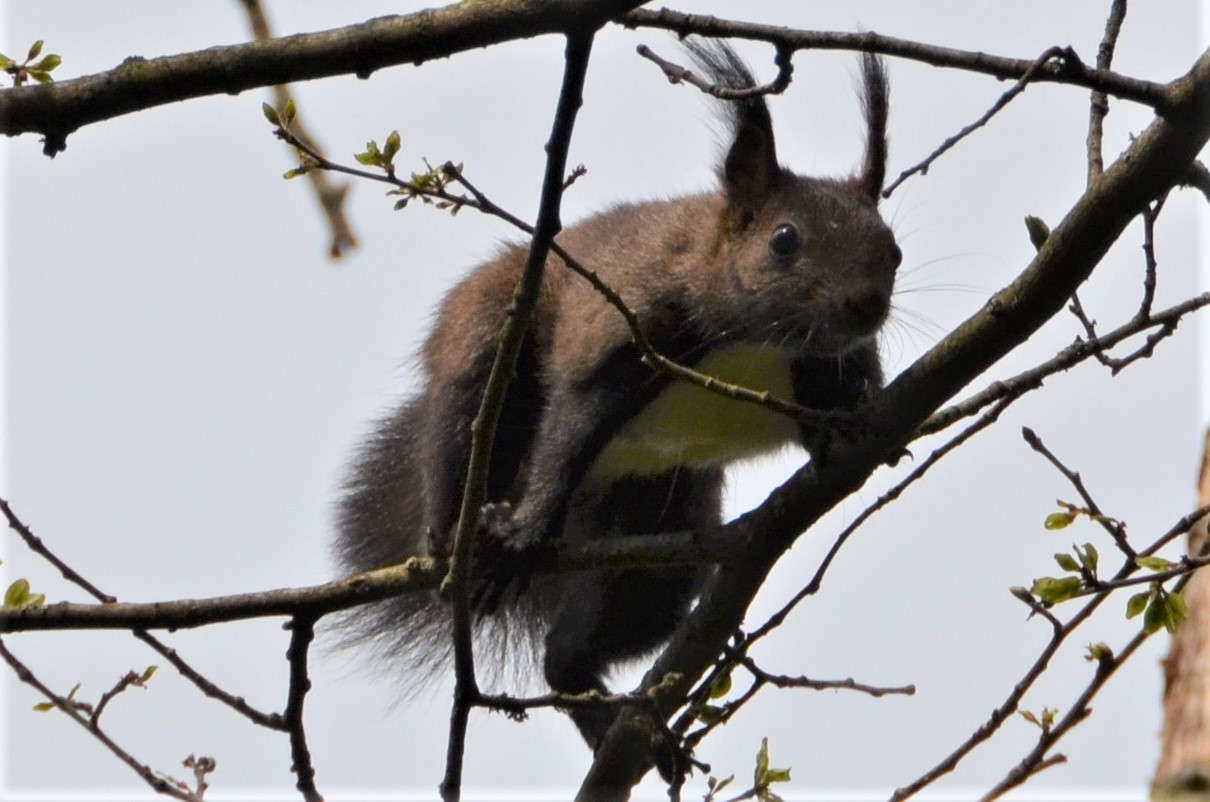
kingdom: Animalia
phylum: Chordata
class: Mammalia
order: Rodentia
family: Sciuridae
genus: Sciurus
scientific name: Sciurus vulgaris
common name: Eurasian red squirrel
